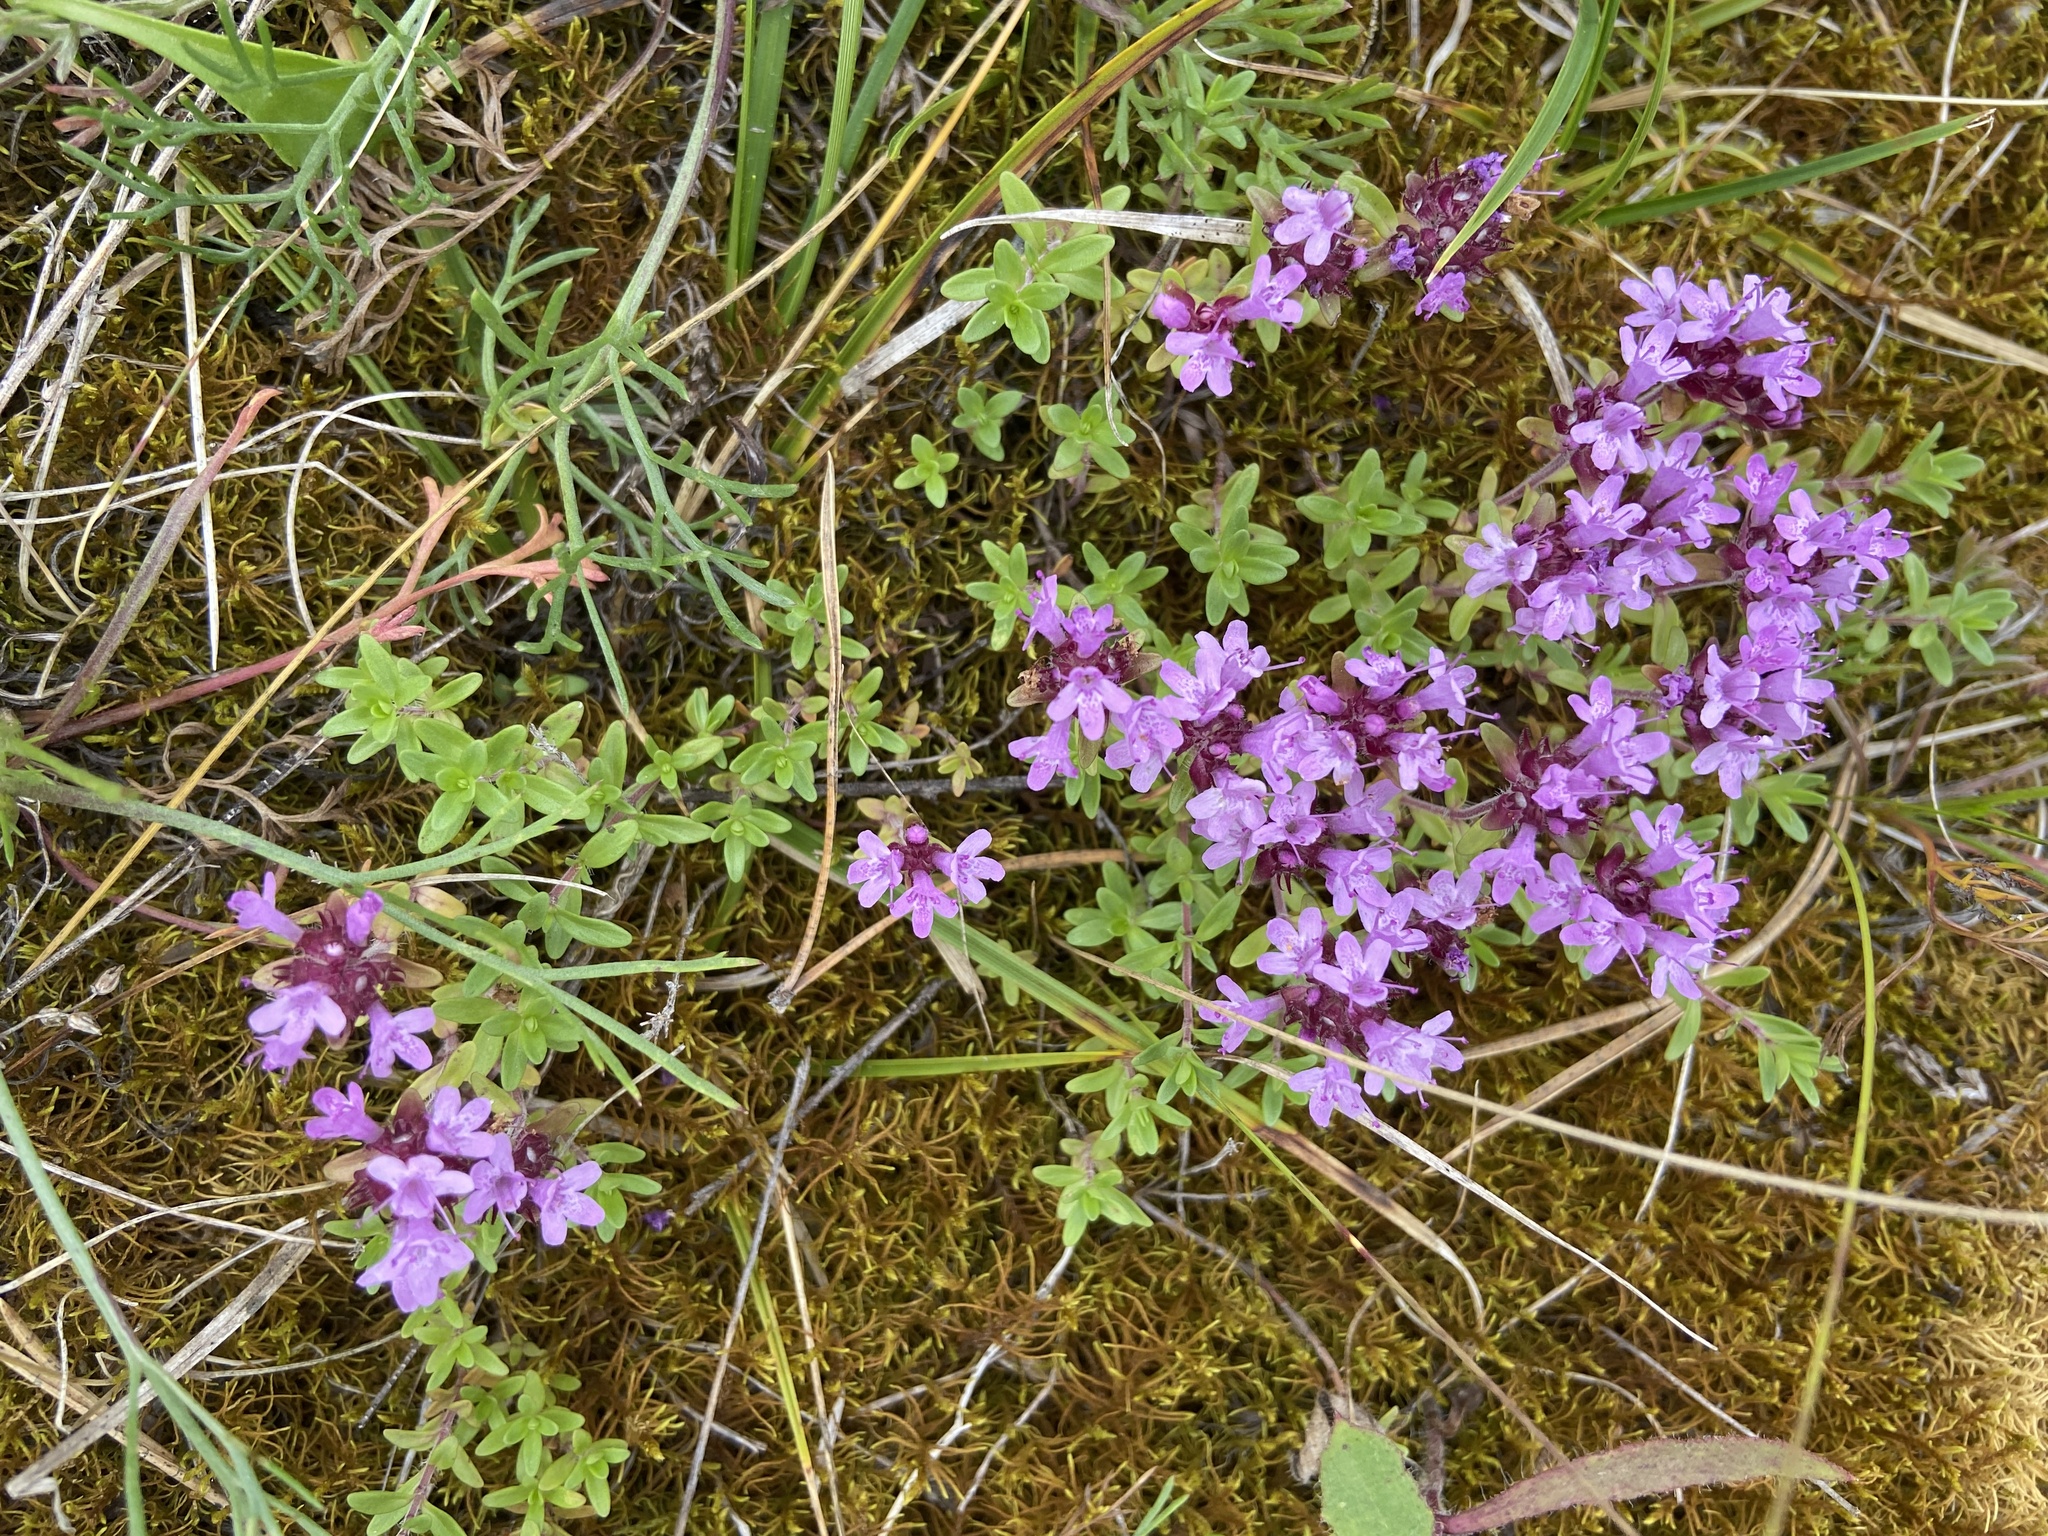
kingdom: Plantae
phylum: Tracheophyta
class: Magnoliopsida
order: Lamiales
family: Lamiaceae
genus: Thymus
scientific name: Thymus serpyllum
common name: Breckland thyme
